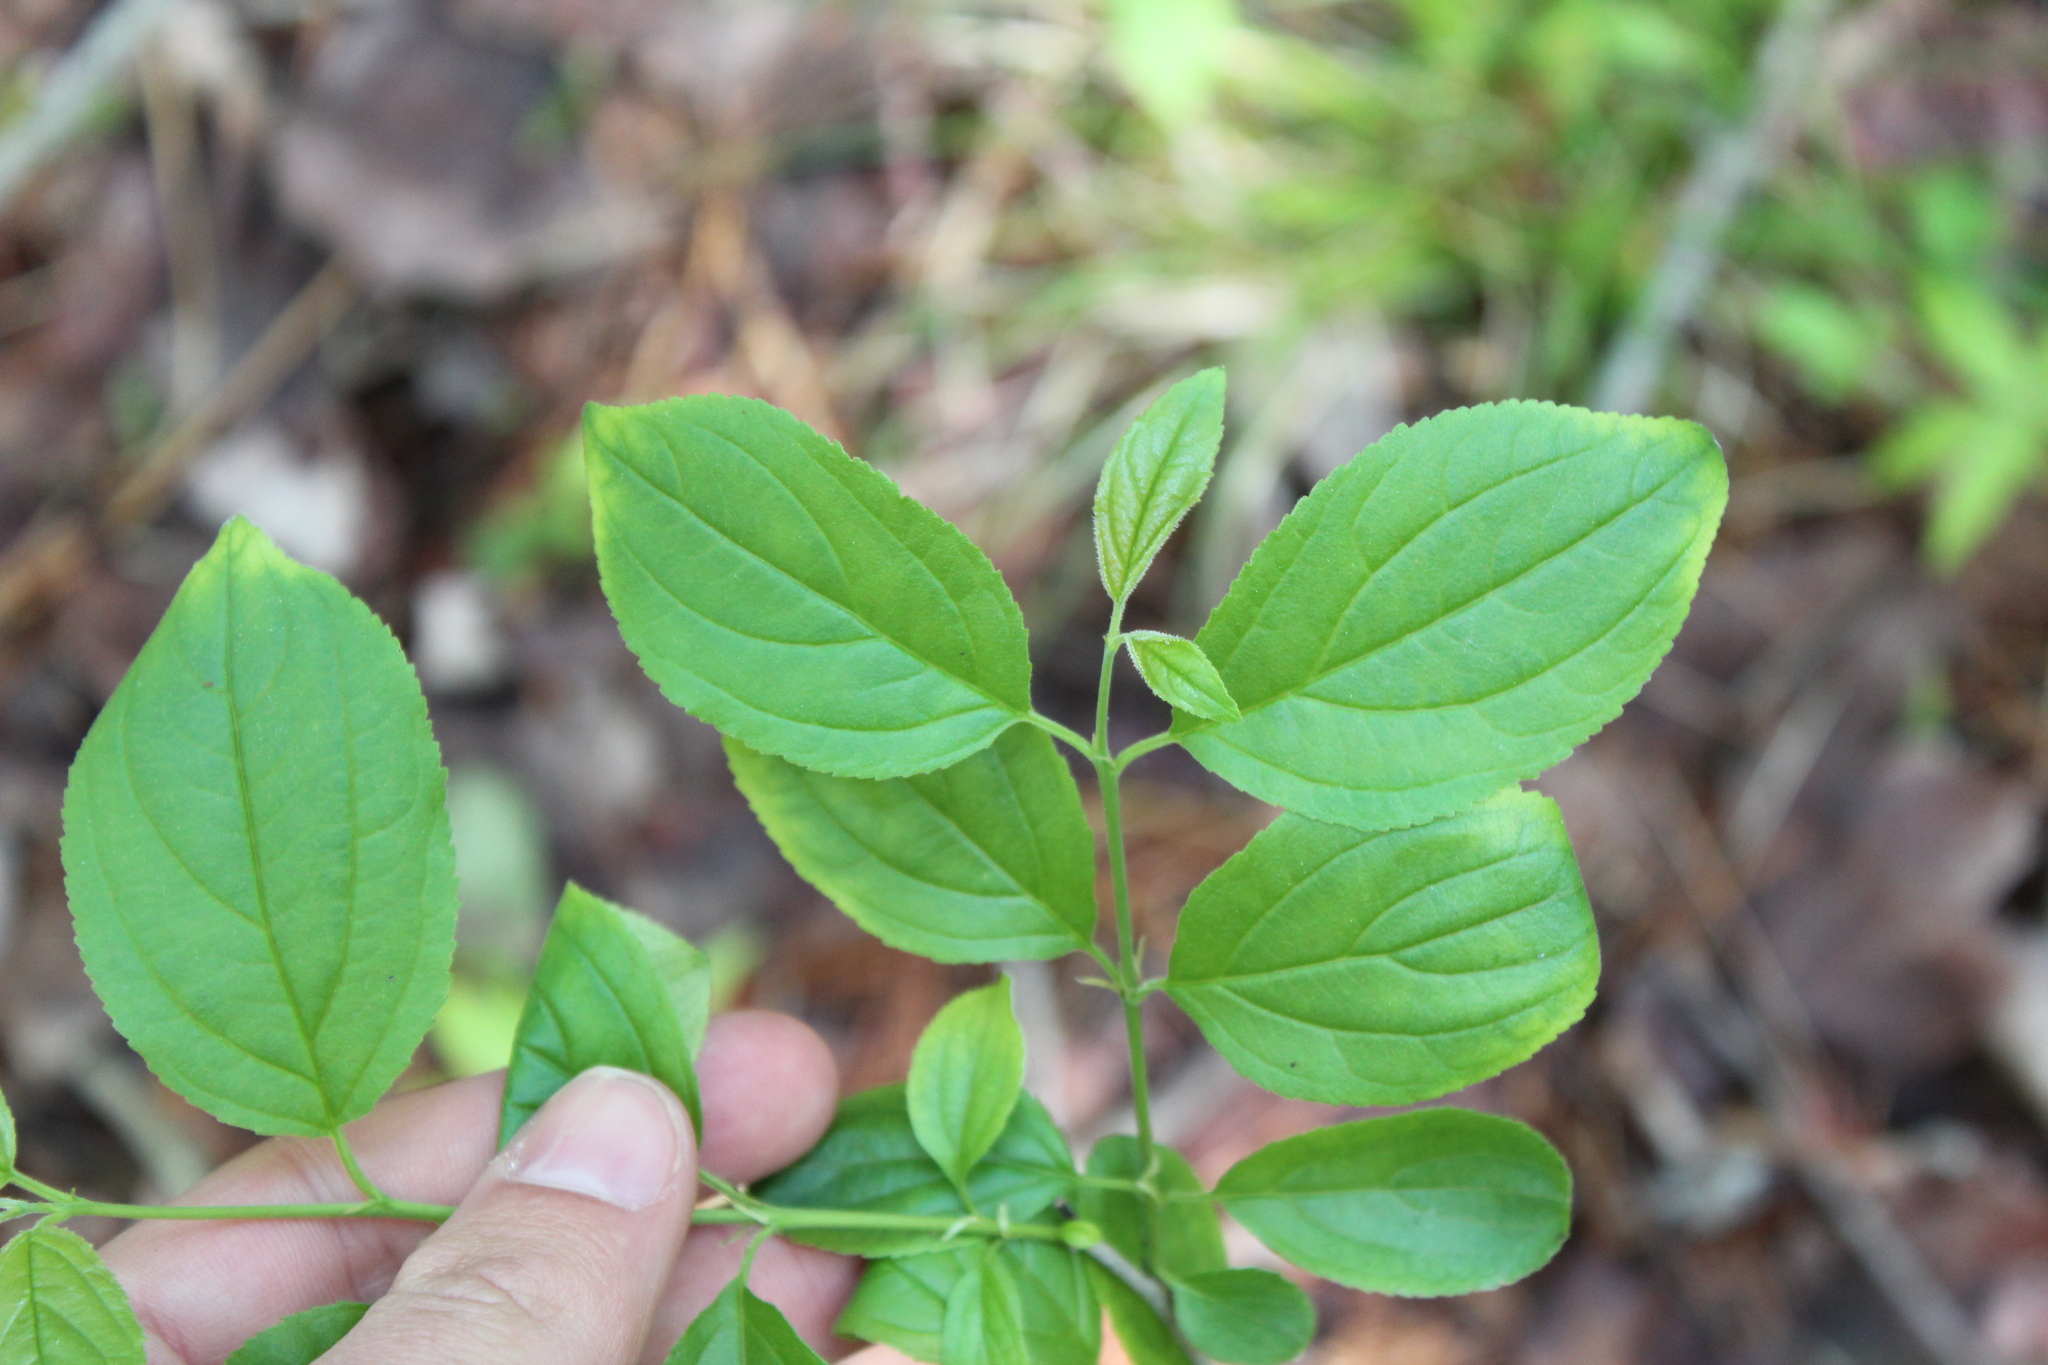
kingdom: Plantae
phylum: Tracheophyta
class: Magnoliopsida
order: Rosales
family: Rhamnaceae
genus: Rhamnus
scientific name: Rhamnus cathartica
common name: Common buckthorn
